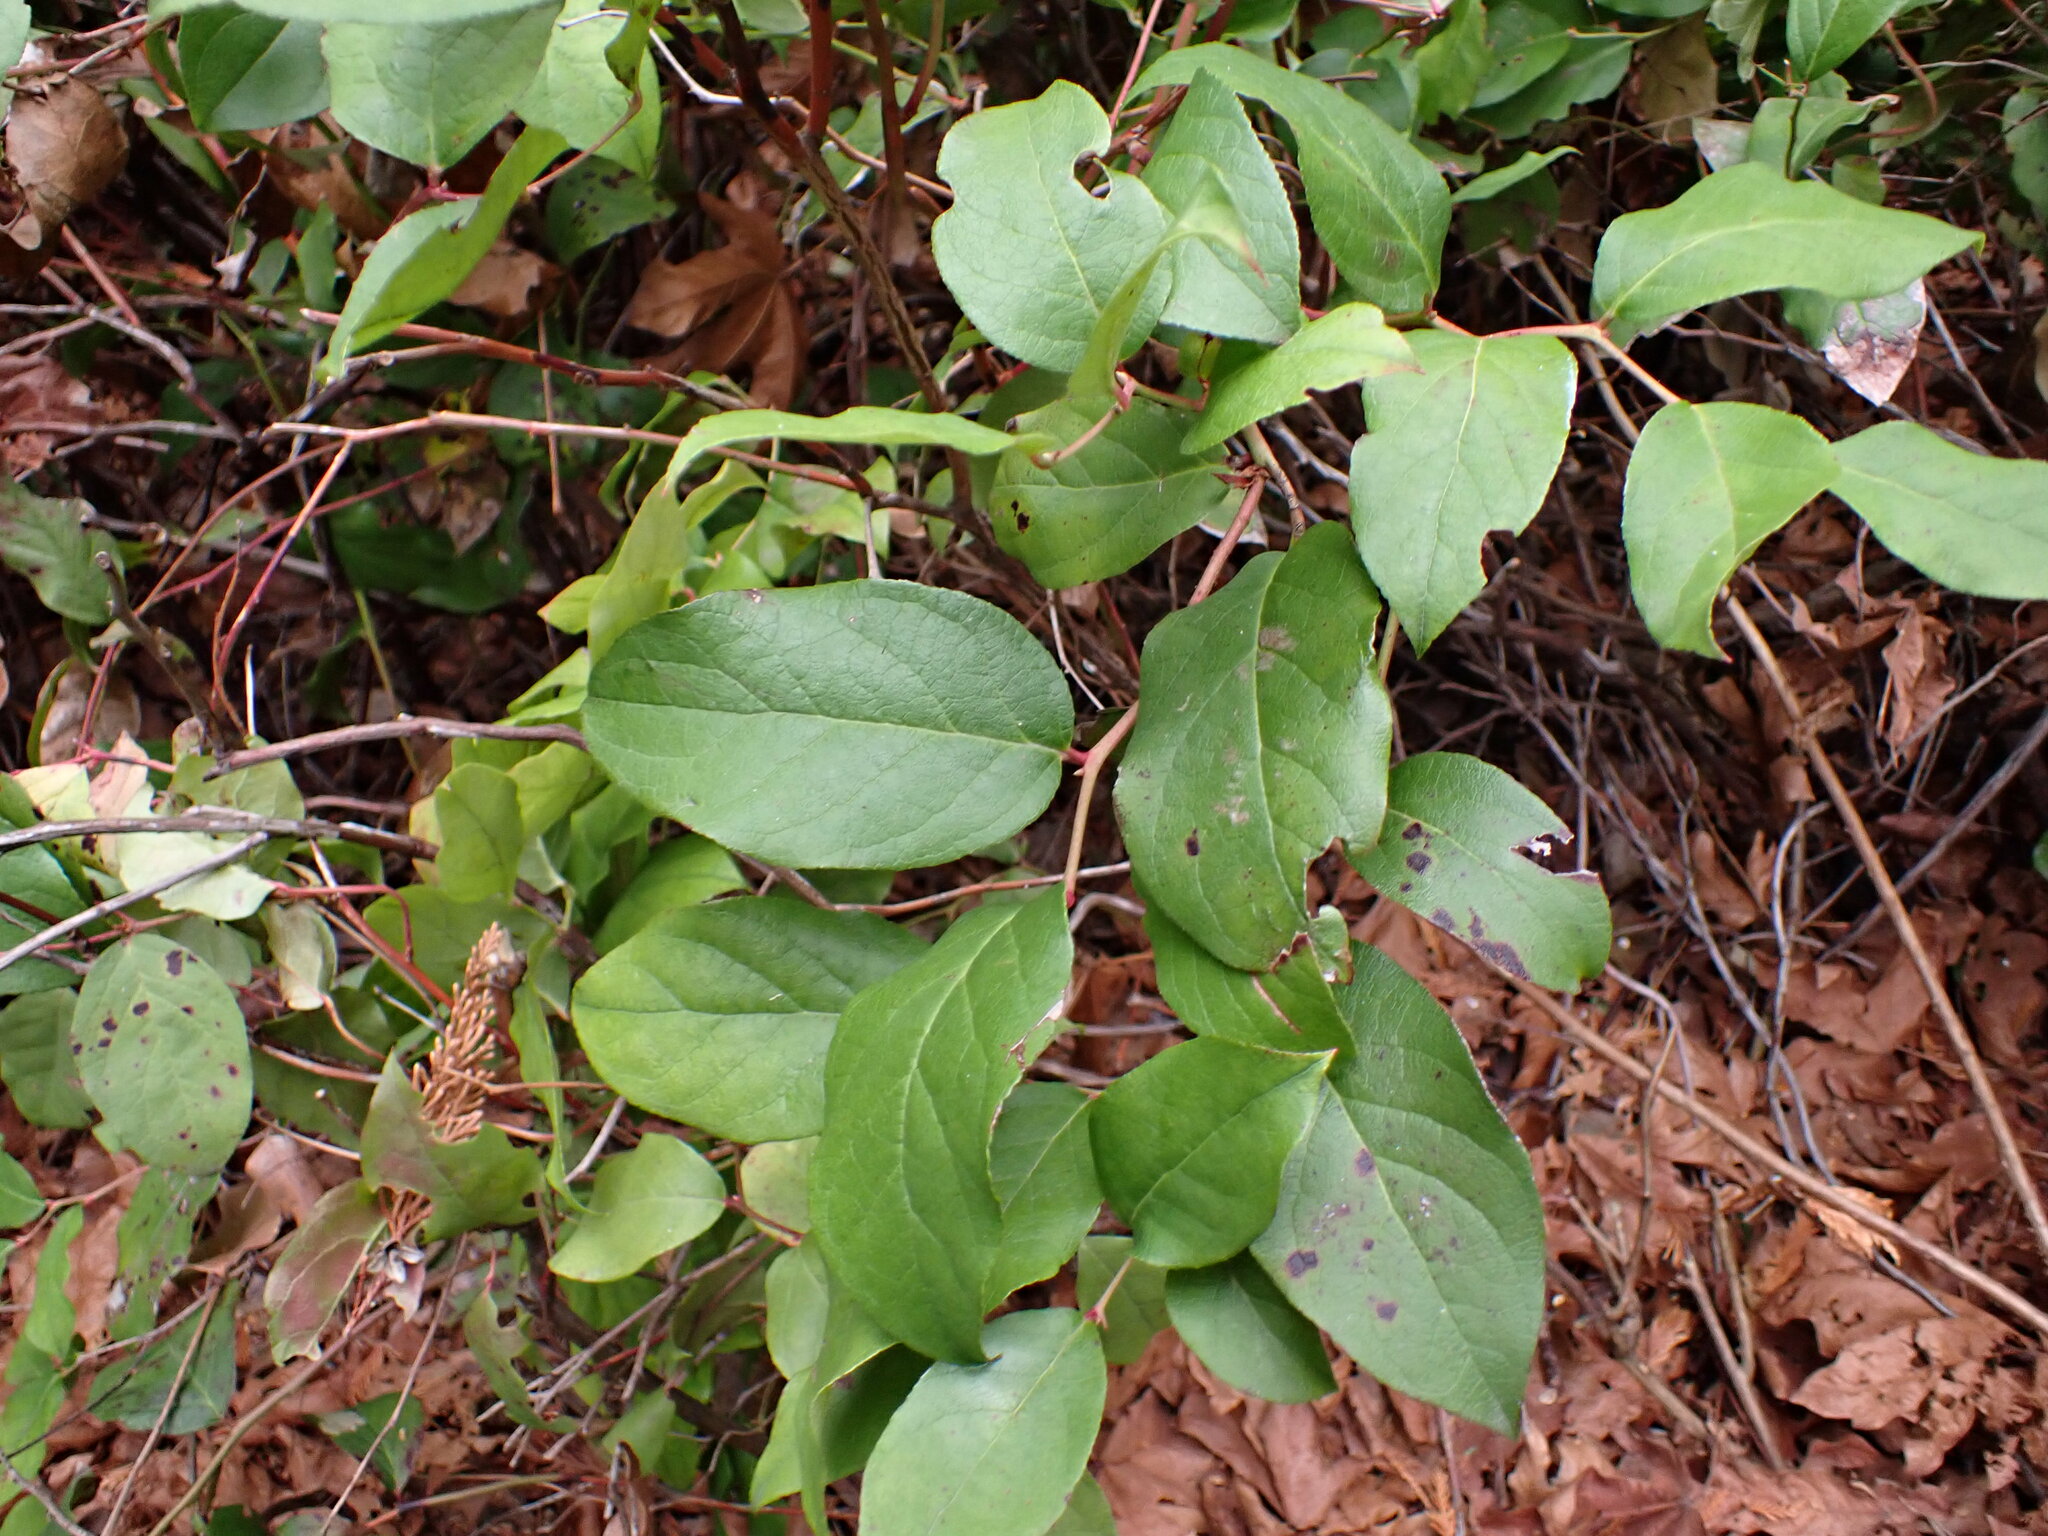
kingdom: Plantae
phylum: Tracheophyta
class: Magnoliopsida
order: Ericales
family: Ericaceae
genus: Gaultheria
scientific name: Gaultheria shallon
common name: Shallon
